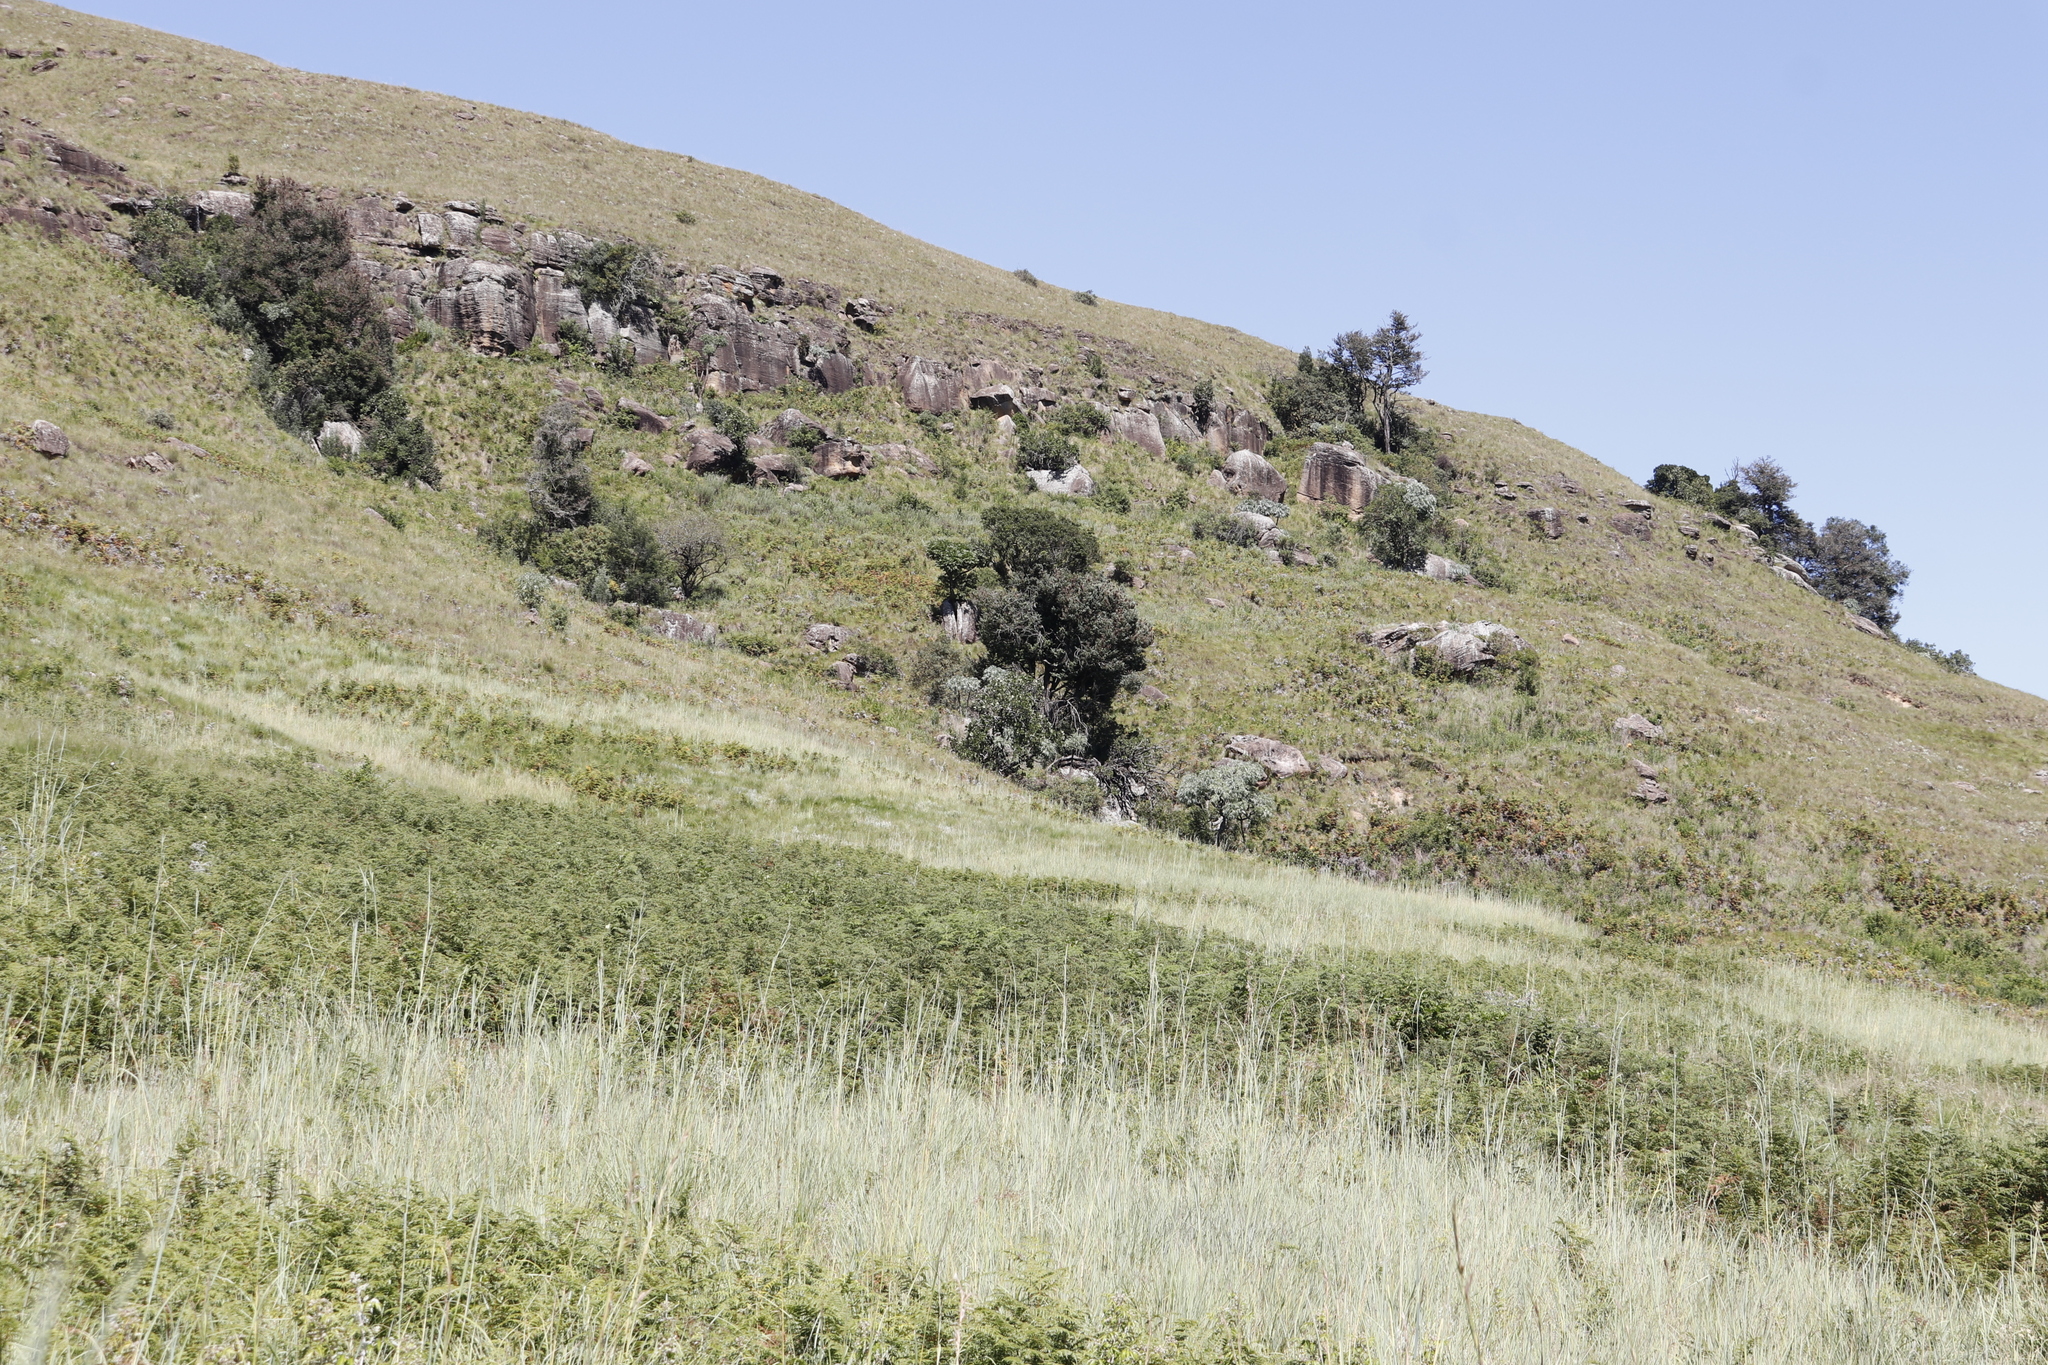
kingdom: Plantae
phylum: Tracheophyta
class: Pinopsida
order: Pinales
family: Podocarpaceae
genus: Podocarpus
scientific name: Podocarpus latifolius
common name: True yellowwood
